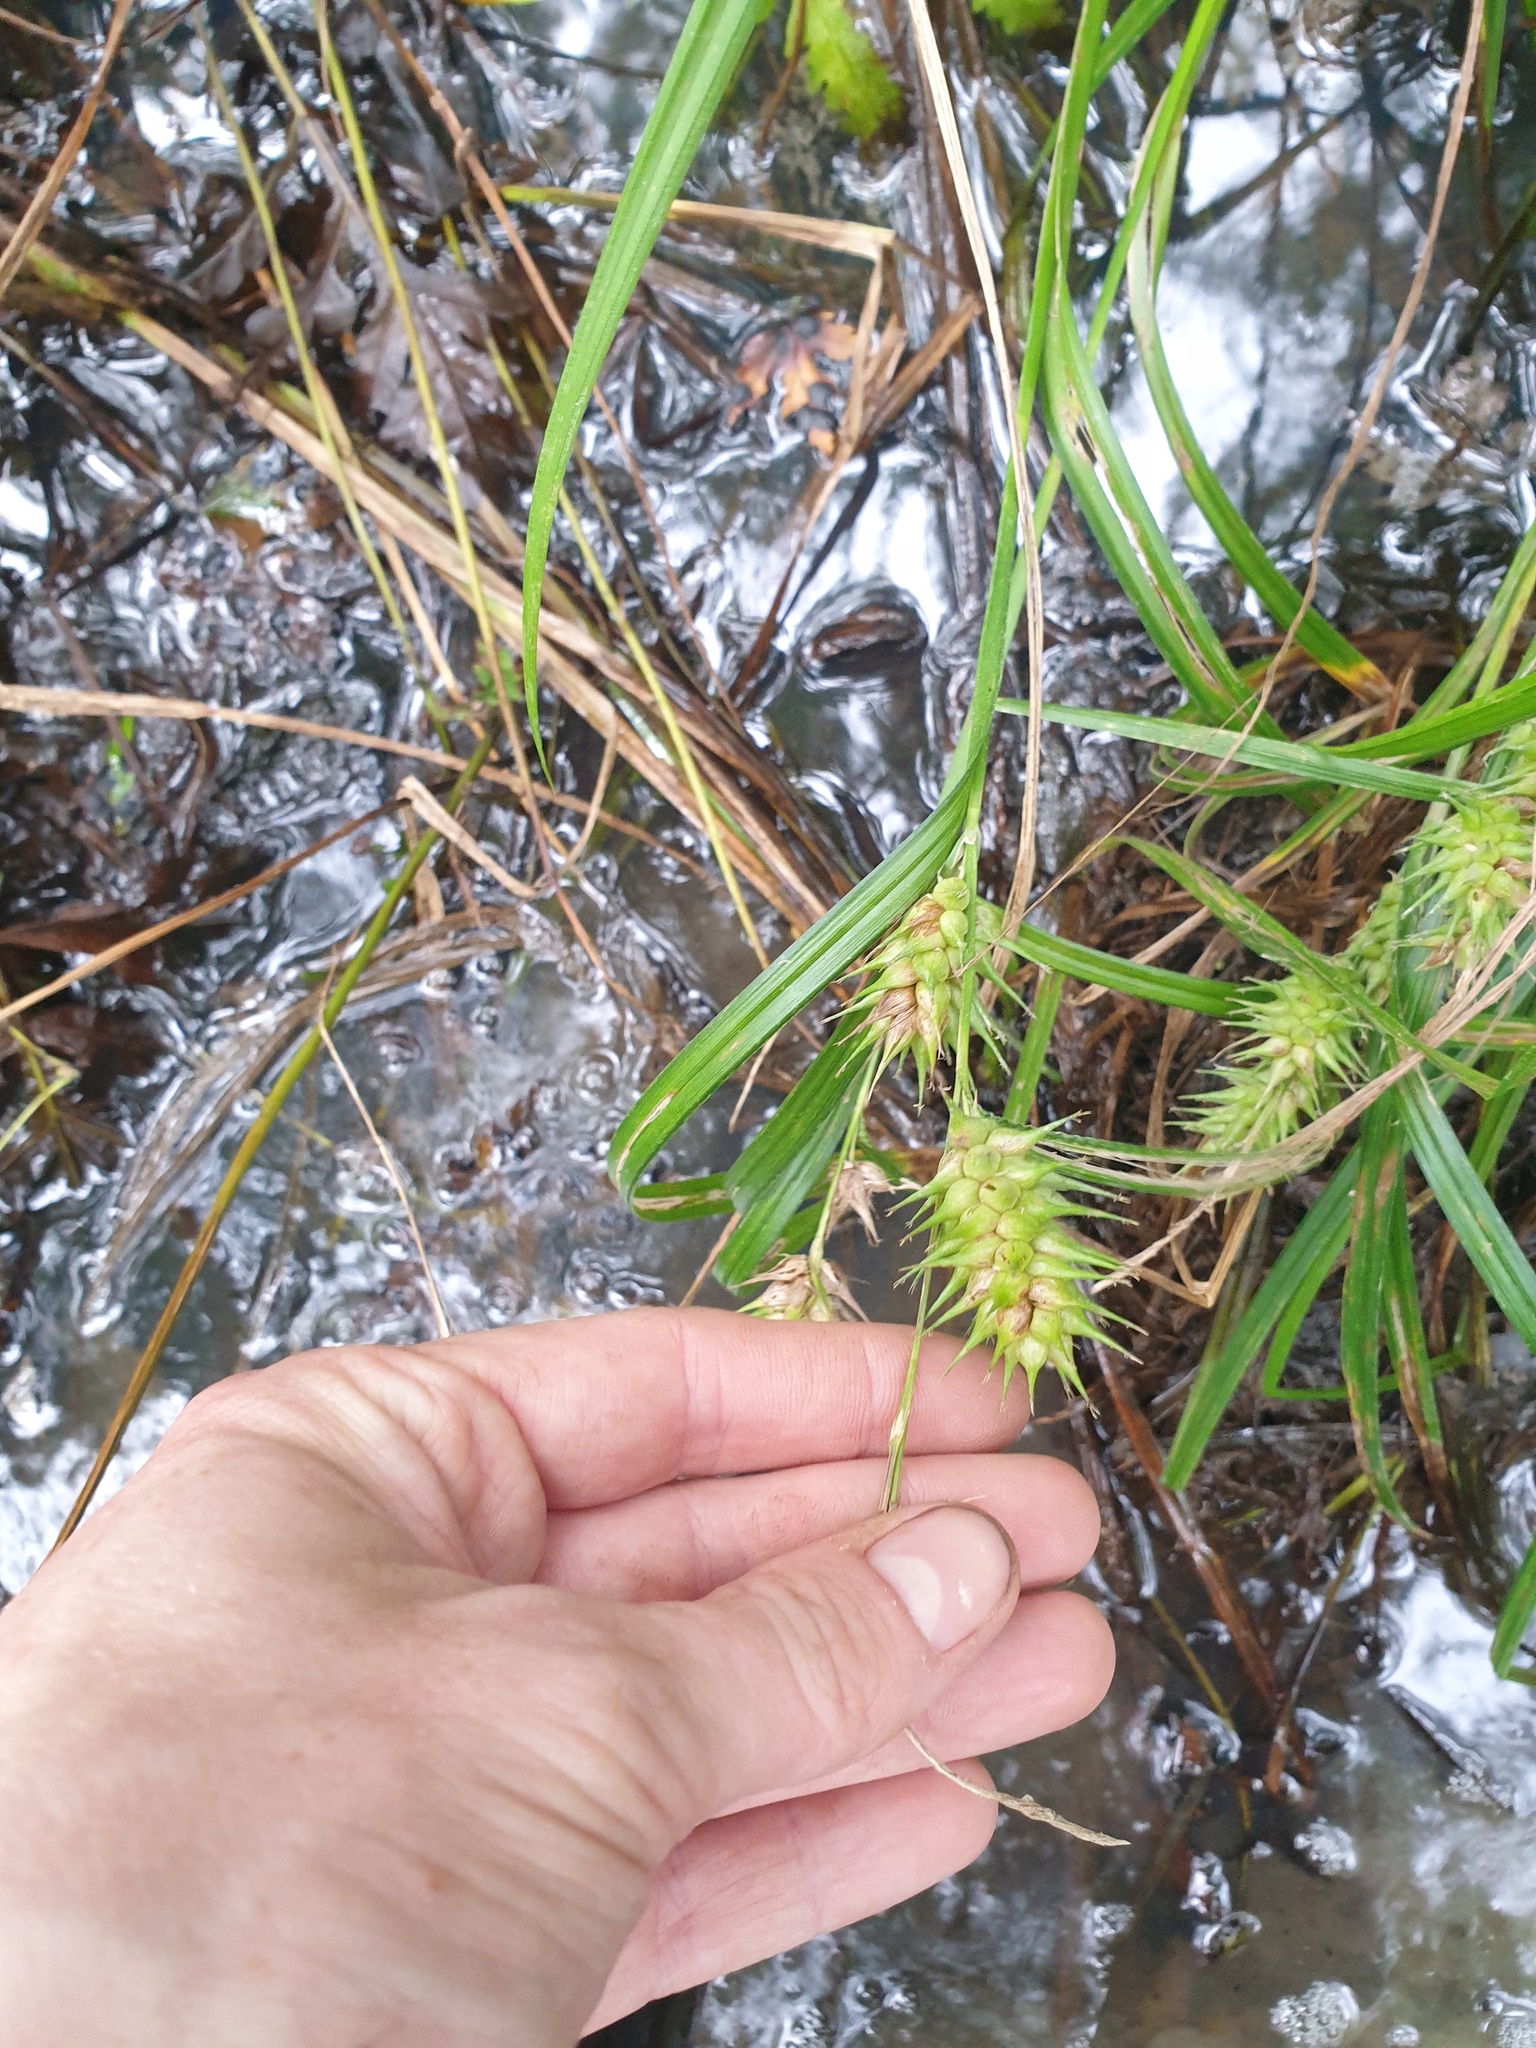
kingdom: Plantae
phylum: Tracheophyta
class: Liliopsida
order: Poales
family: Cyperaceae
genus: Carex
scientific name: Carex lupulina
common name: Hop sedge
